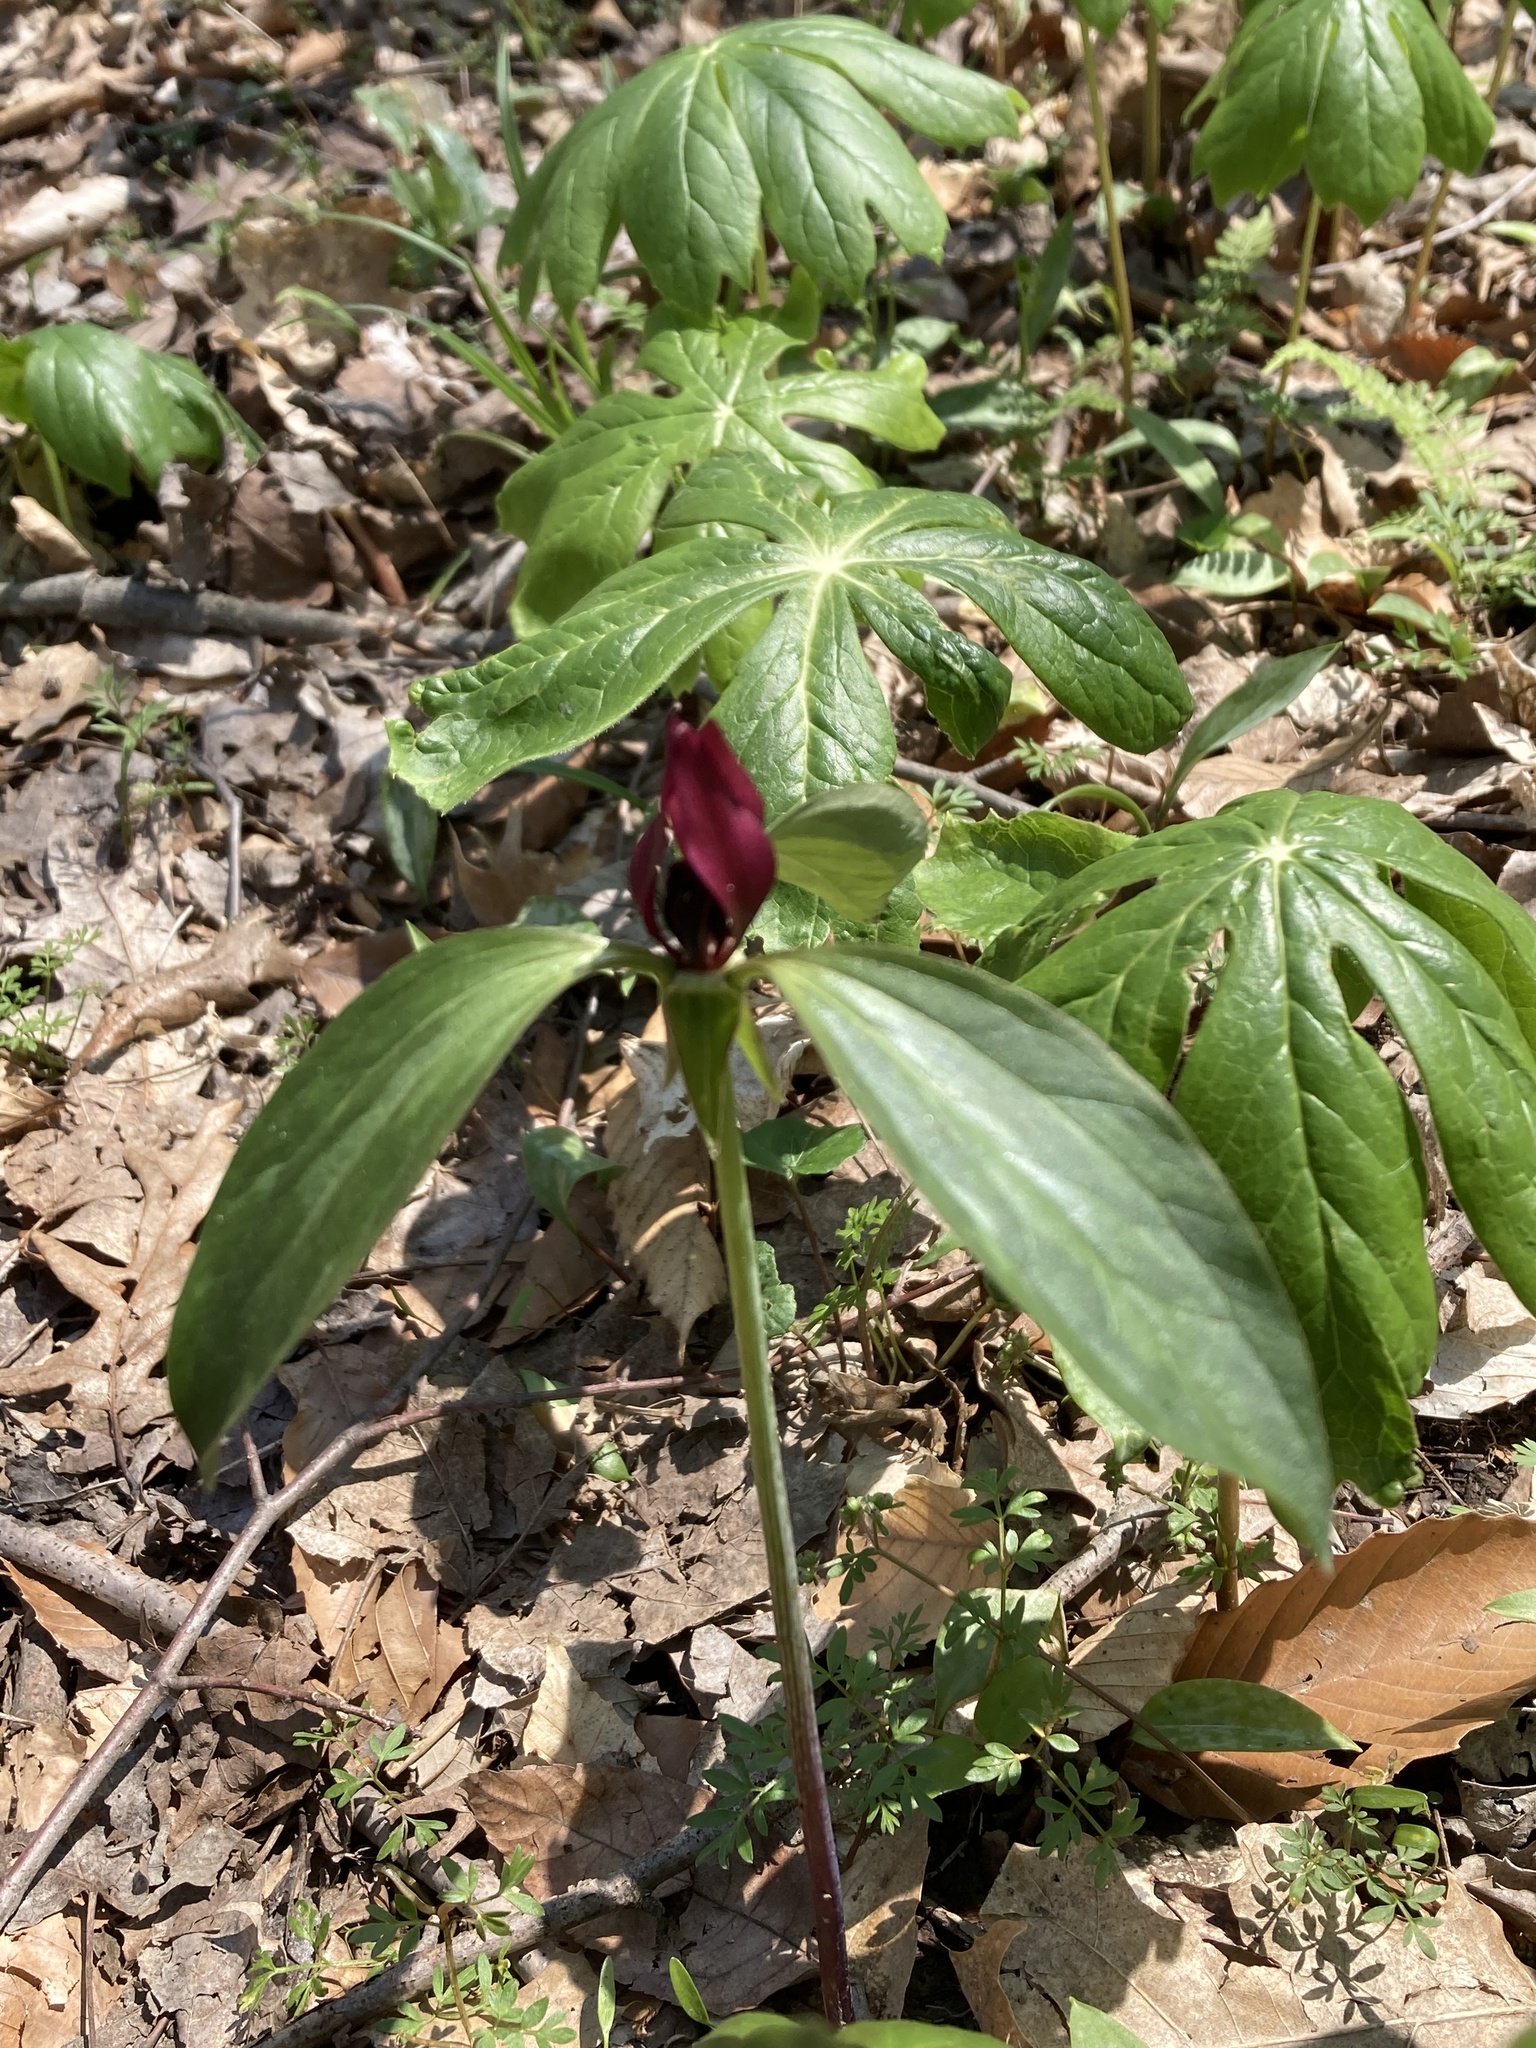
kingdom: Plantae
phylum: Tracheophyta
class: Liliopsida
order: Liliales
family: Melanthiaceae
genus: Trillium
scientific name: Trillium recurvatum
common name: Bloody butcher
